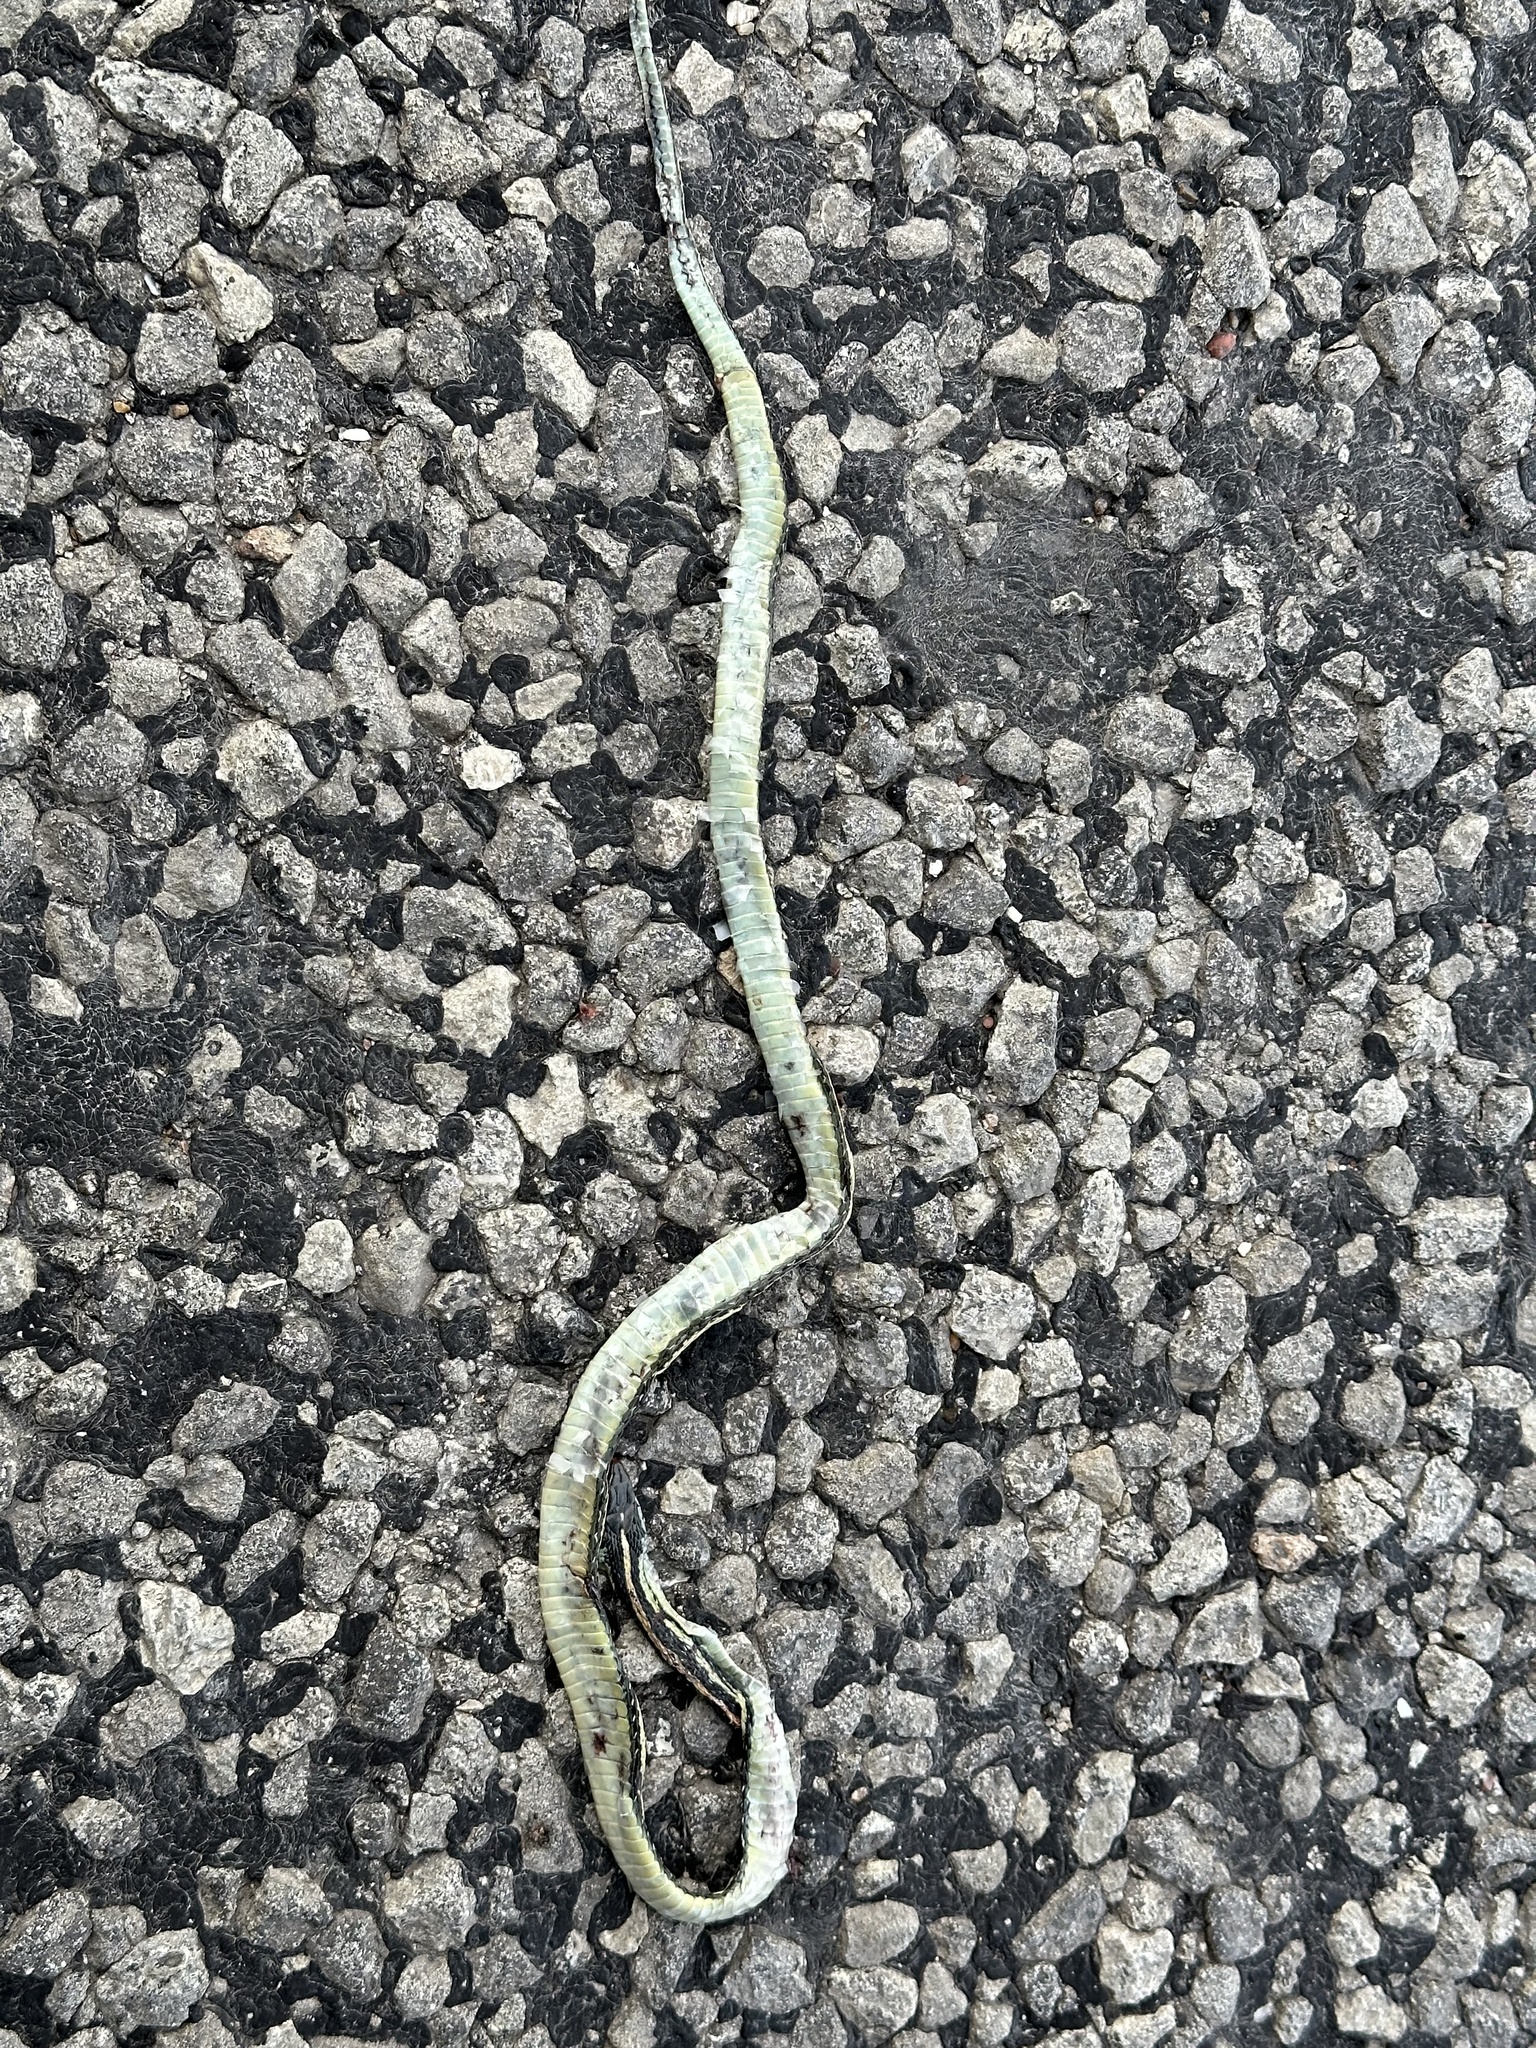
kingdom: Animalia
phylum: Chordata
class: Squamata
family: Colubridae
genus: Thamnophis
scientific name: Thamnophis proximus
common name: Western ribbon snake
